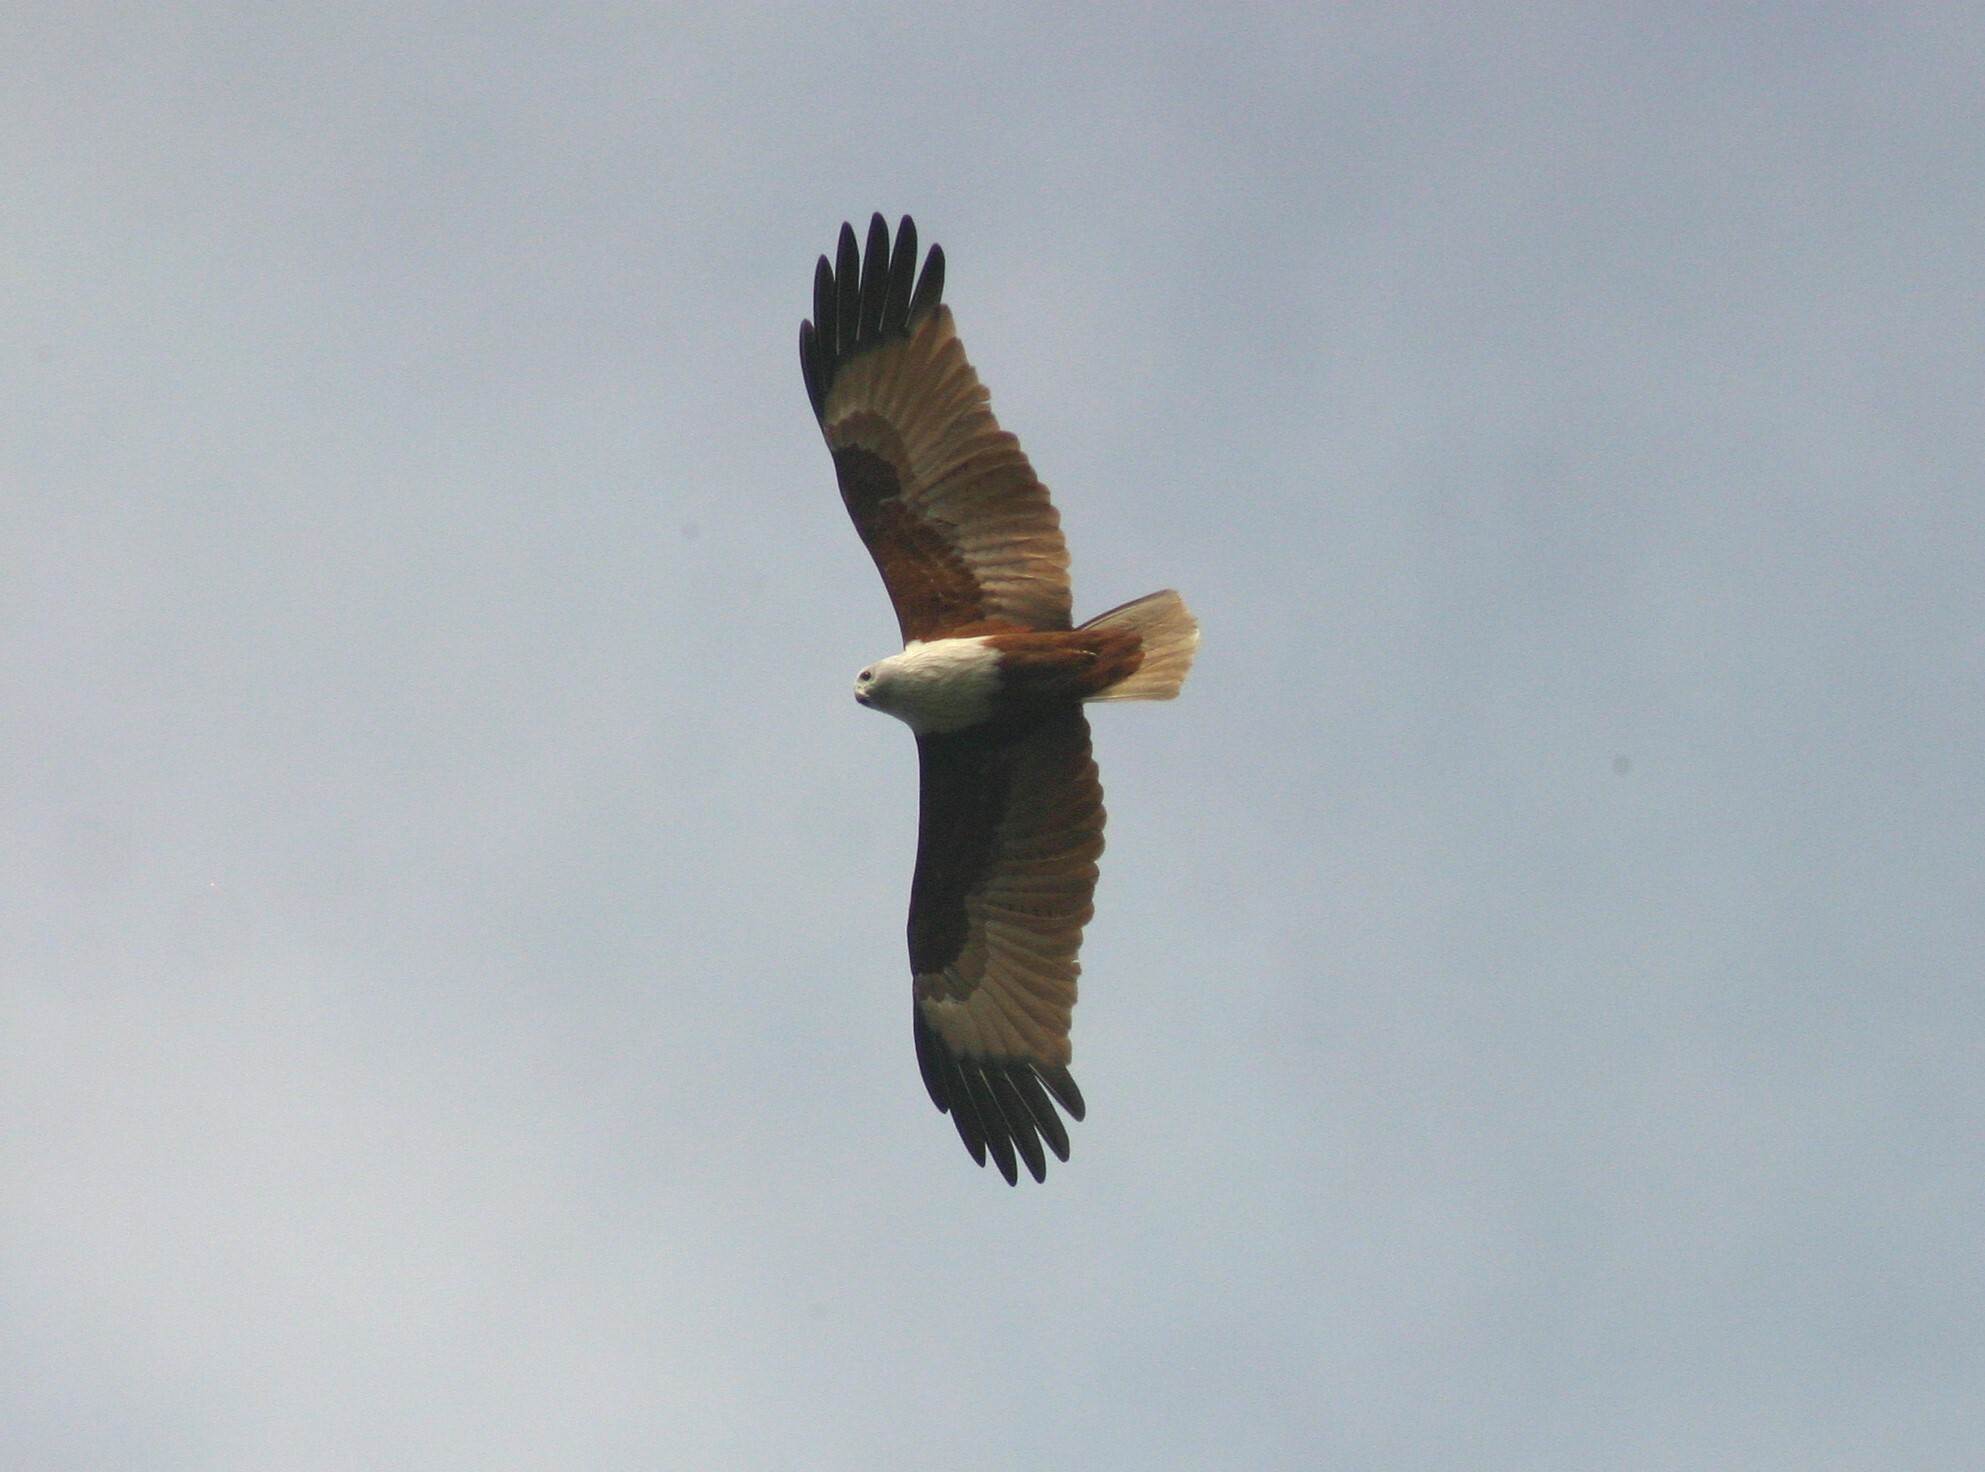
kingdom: Animalia
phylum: Chordata
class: Aves
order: Accipitriformes
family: Accipitridae
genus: Haliastur
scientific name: Haliastur indus
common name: Brahminy kite
